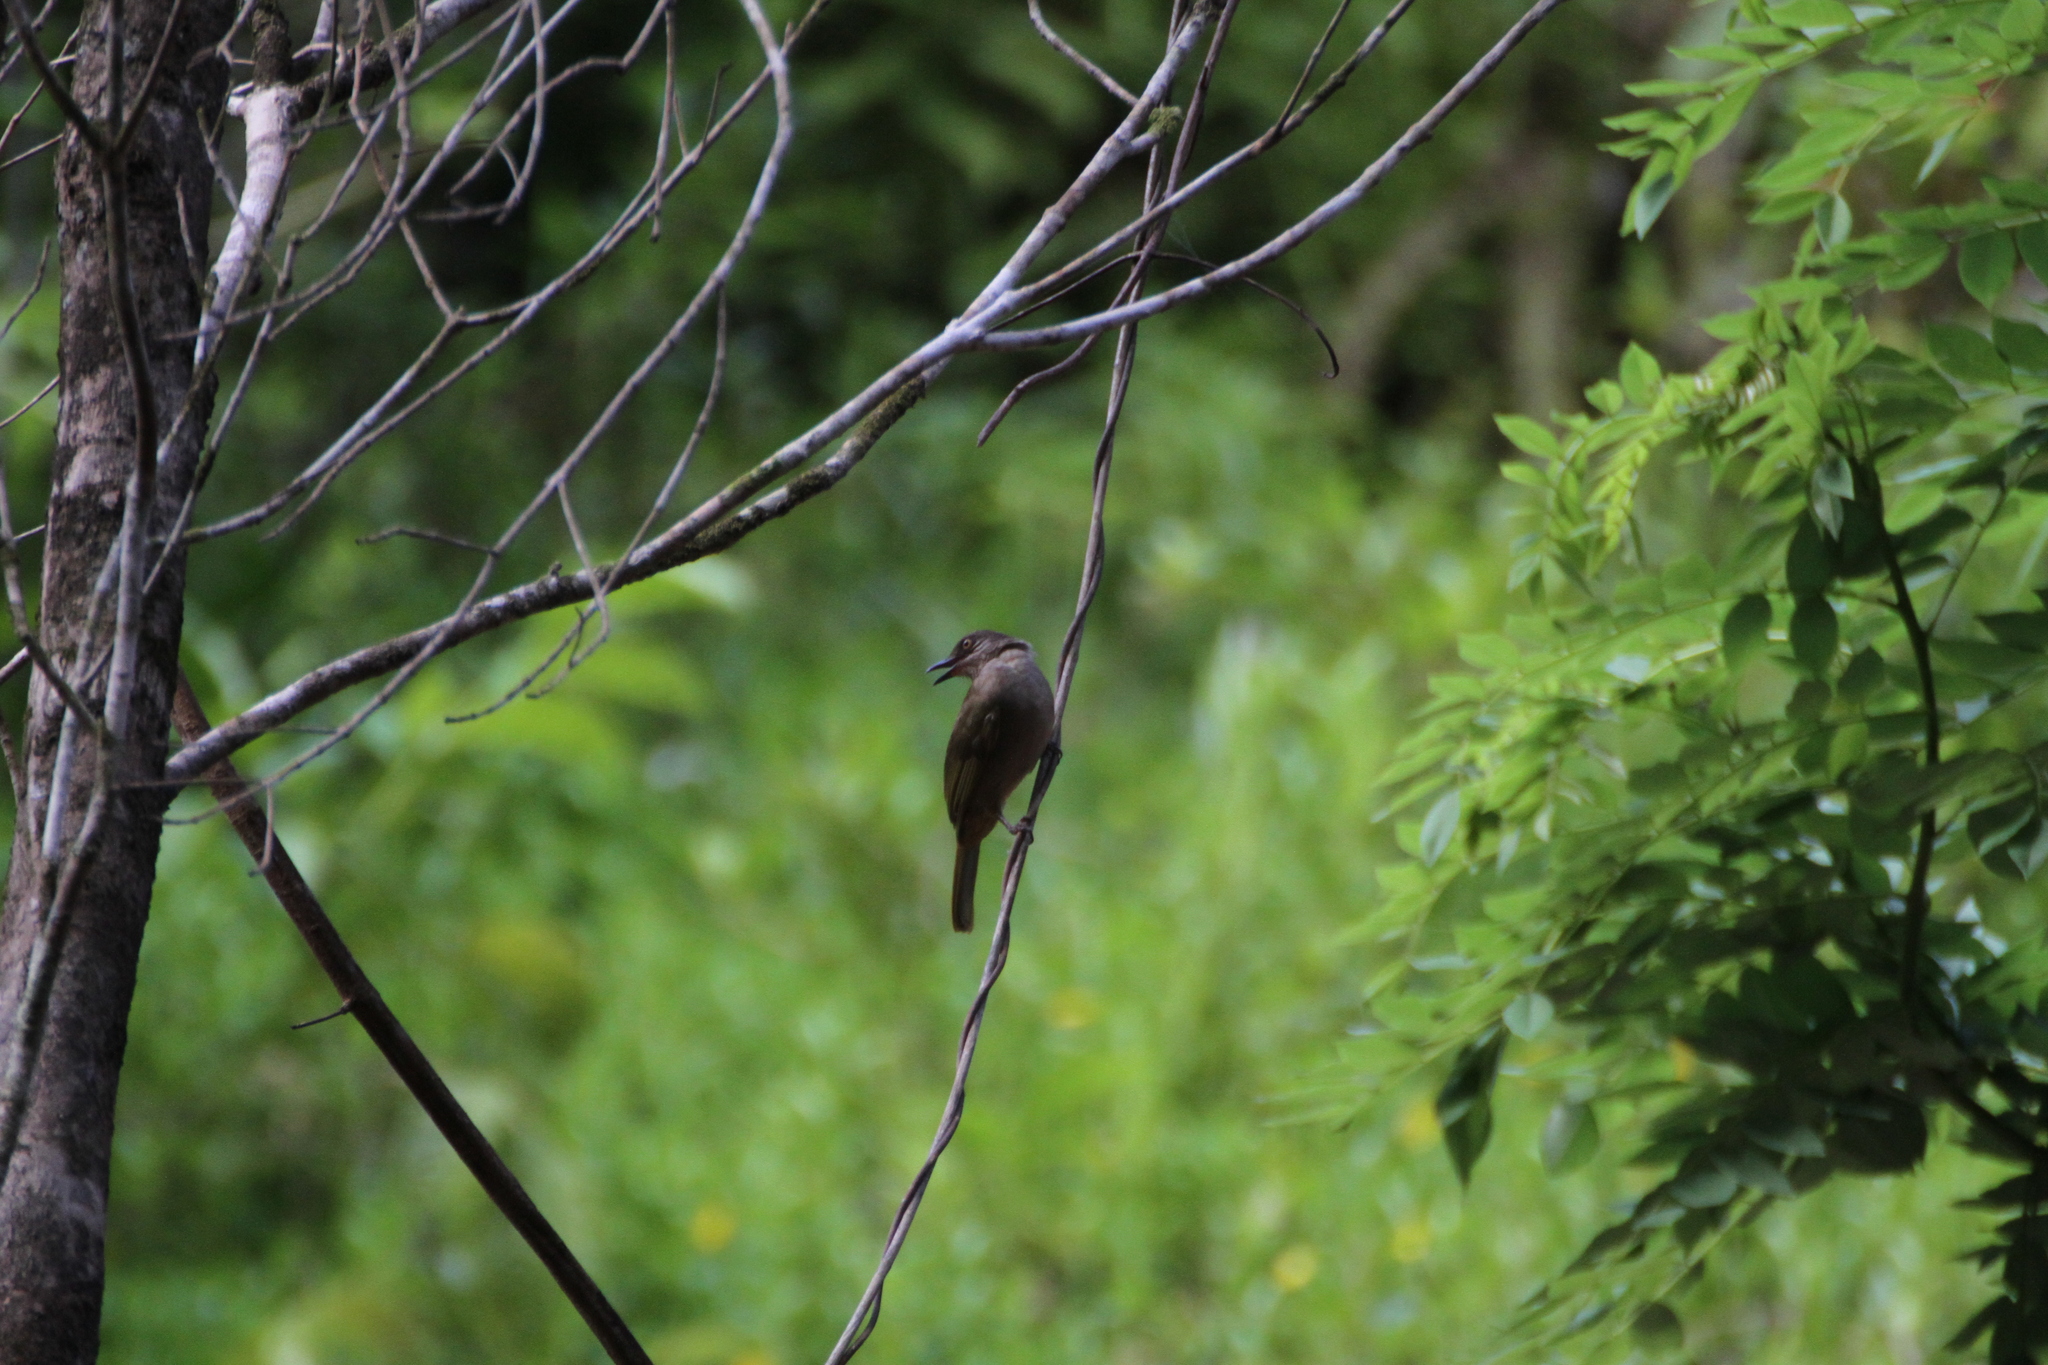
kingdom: Animalia
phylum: Chordata
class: Aves
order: Passeriformes
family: Pycnonotidae
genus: Pycnonotus
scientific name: Pycnonotus plumosus
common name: Olive-winged bulbul
